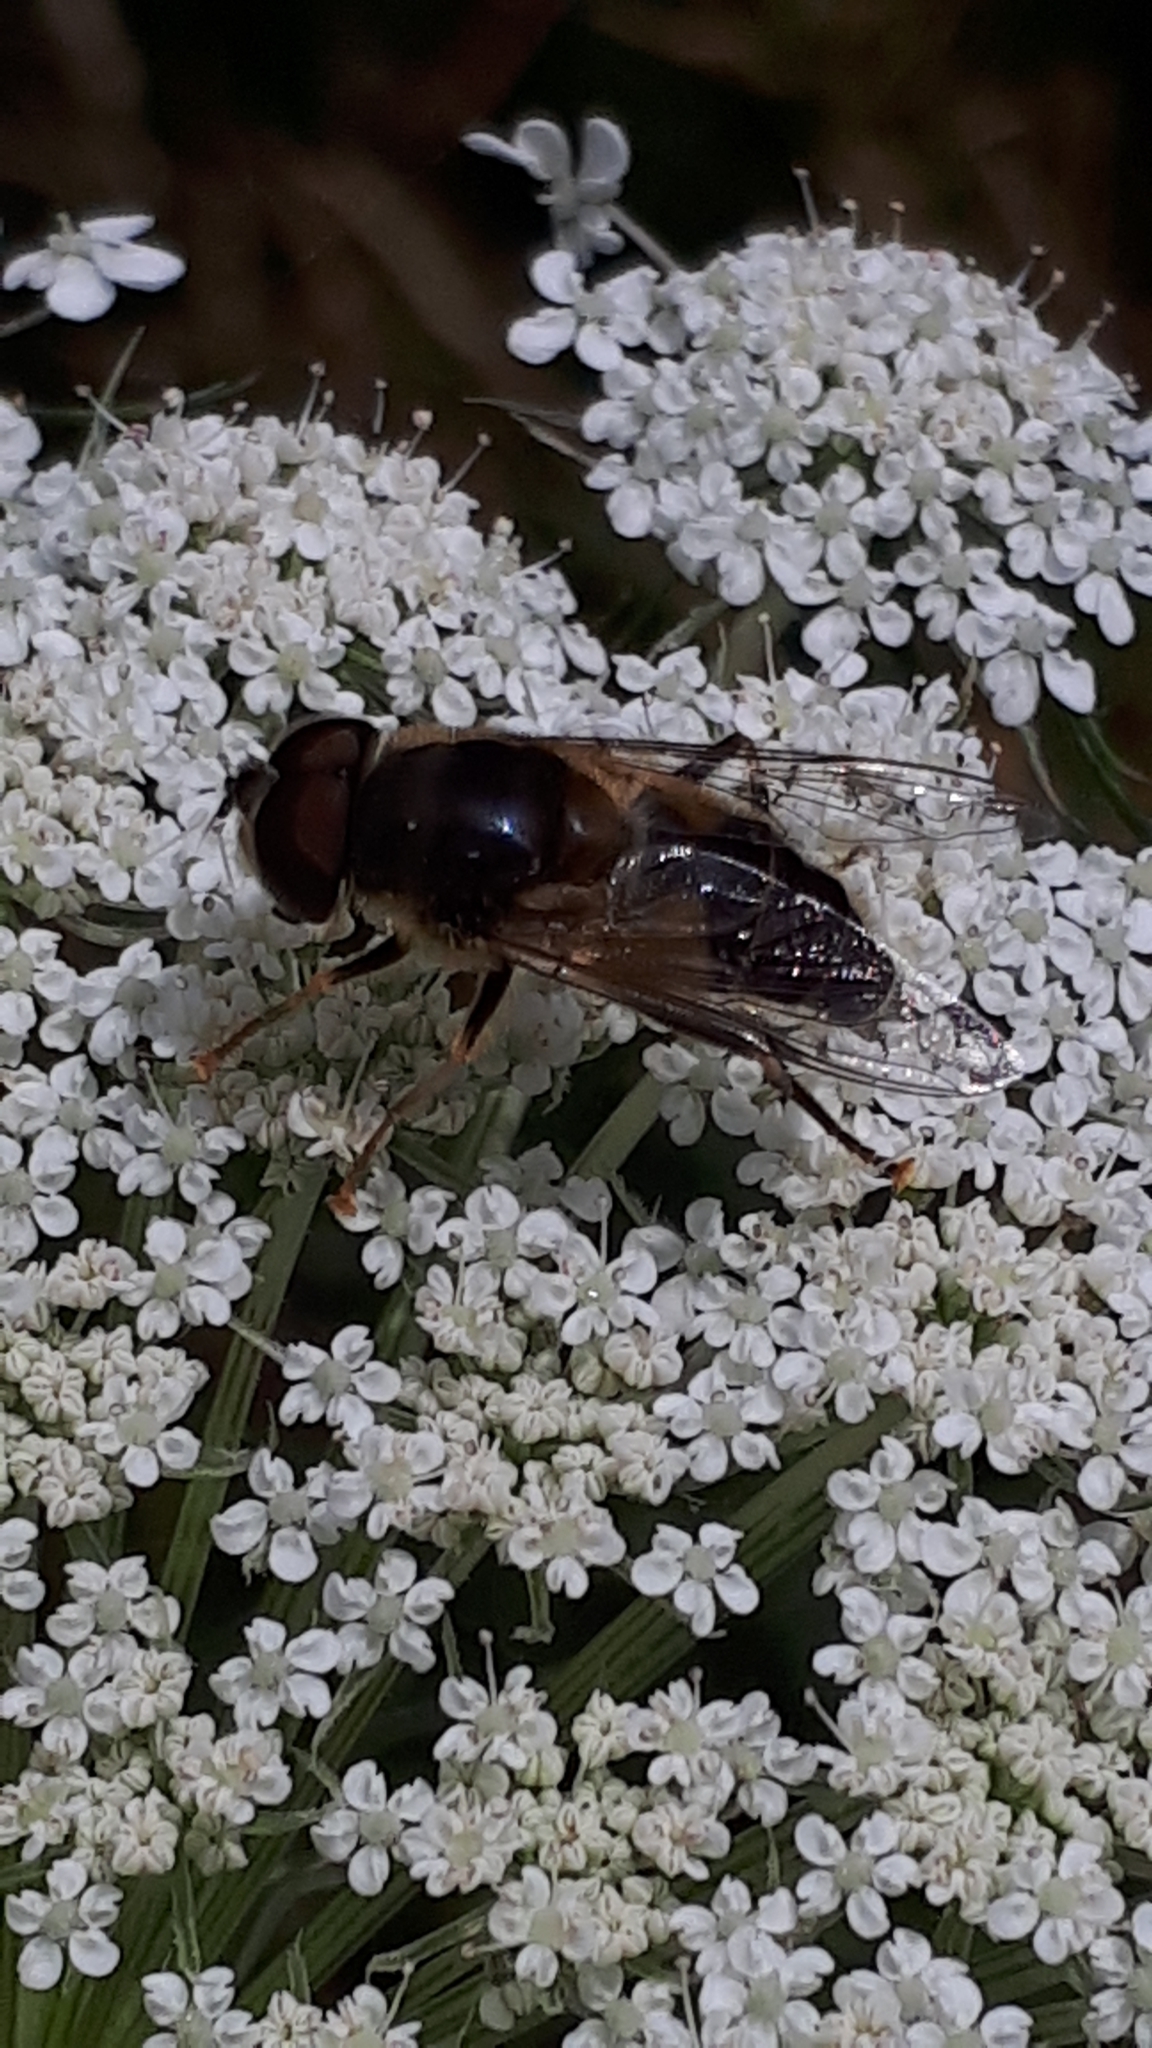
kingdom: Animalia
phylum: Arthropoda
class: Insecta
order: Diptera
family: Syrphidae
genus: Eristalis
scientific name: Eristalis pertinax
